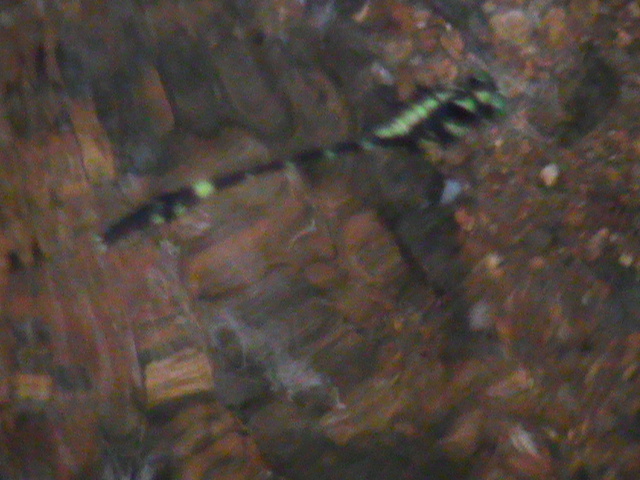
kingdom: Animalia
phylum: Arthropoda
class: Insecta
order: Odonata
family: Gomphidae
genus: Macrogomphus
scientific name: Macrogomphus wynaadicus
